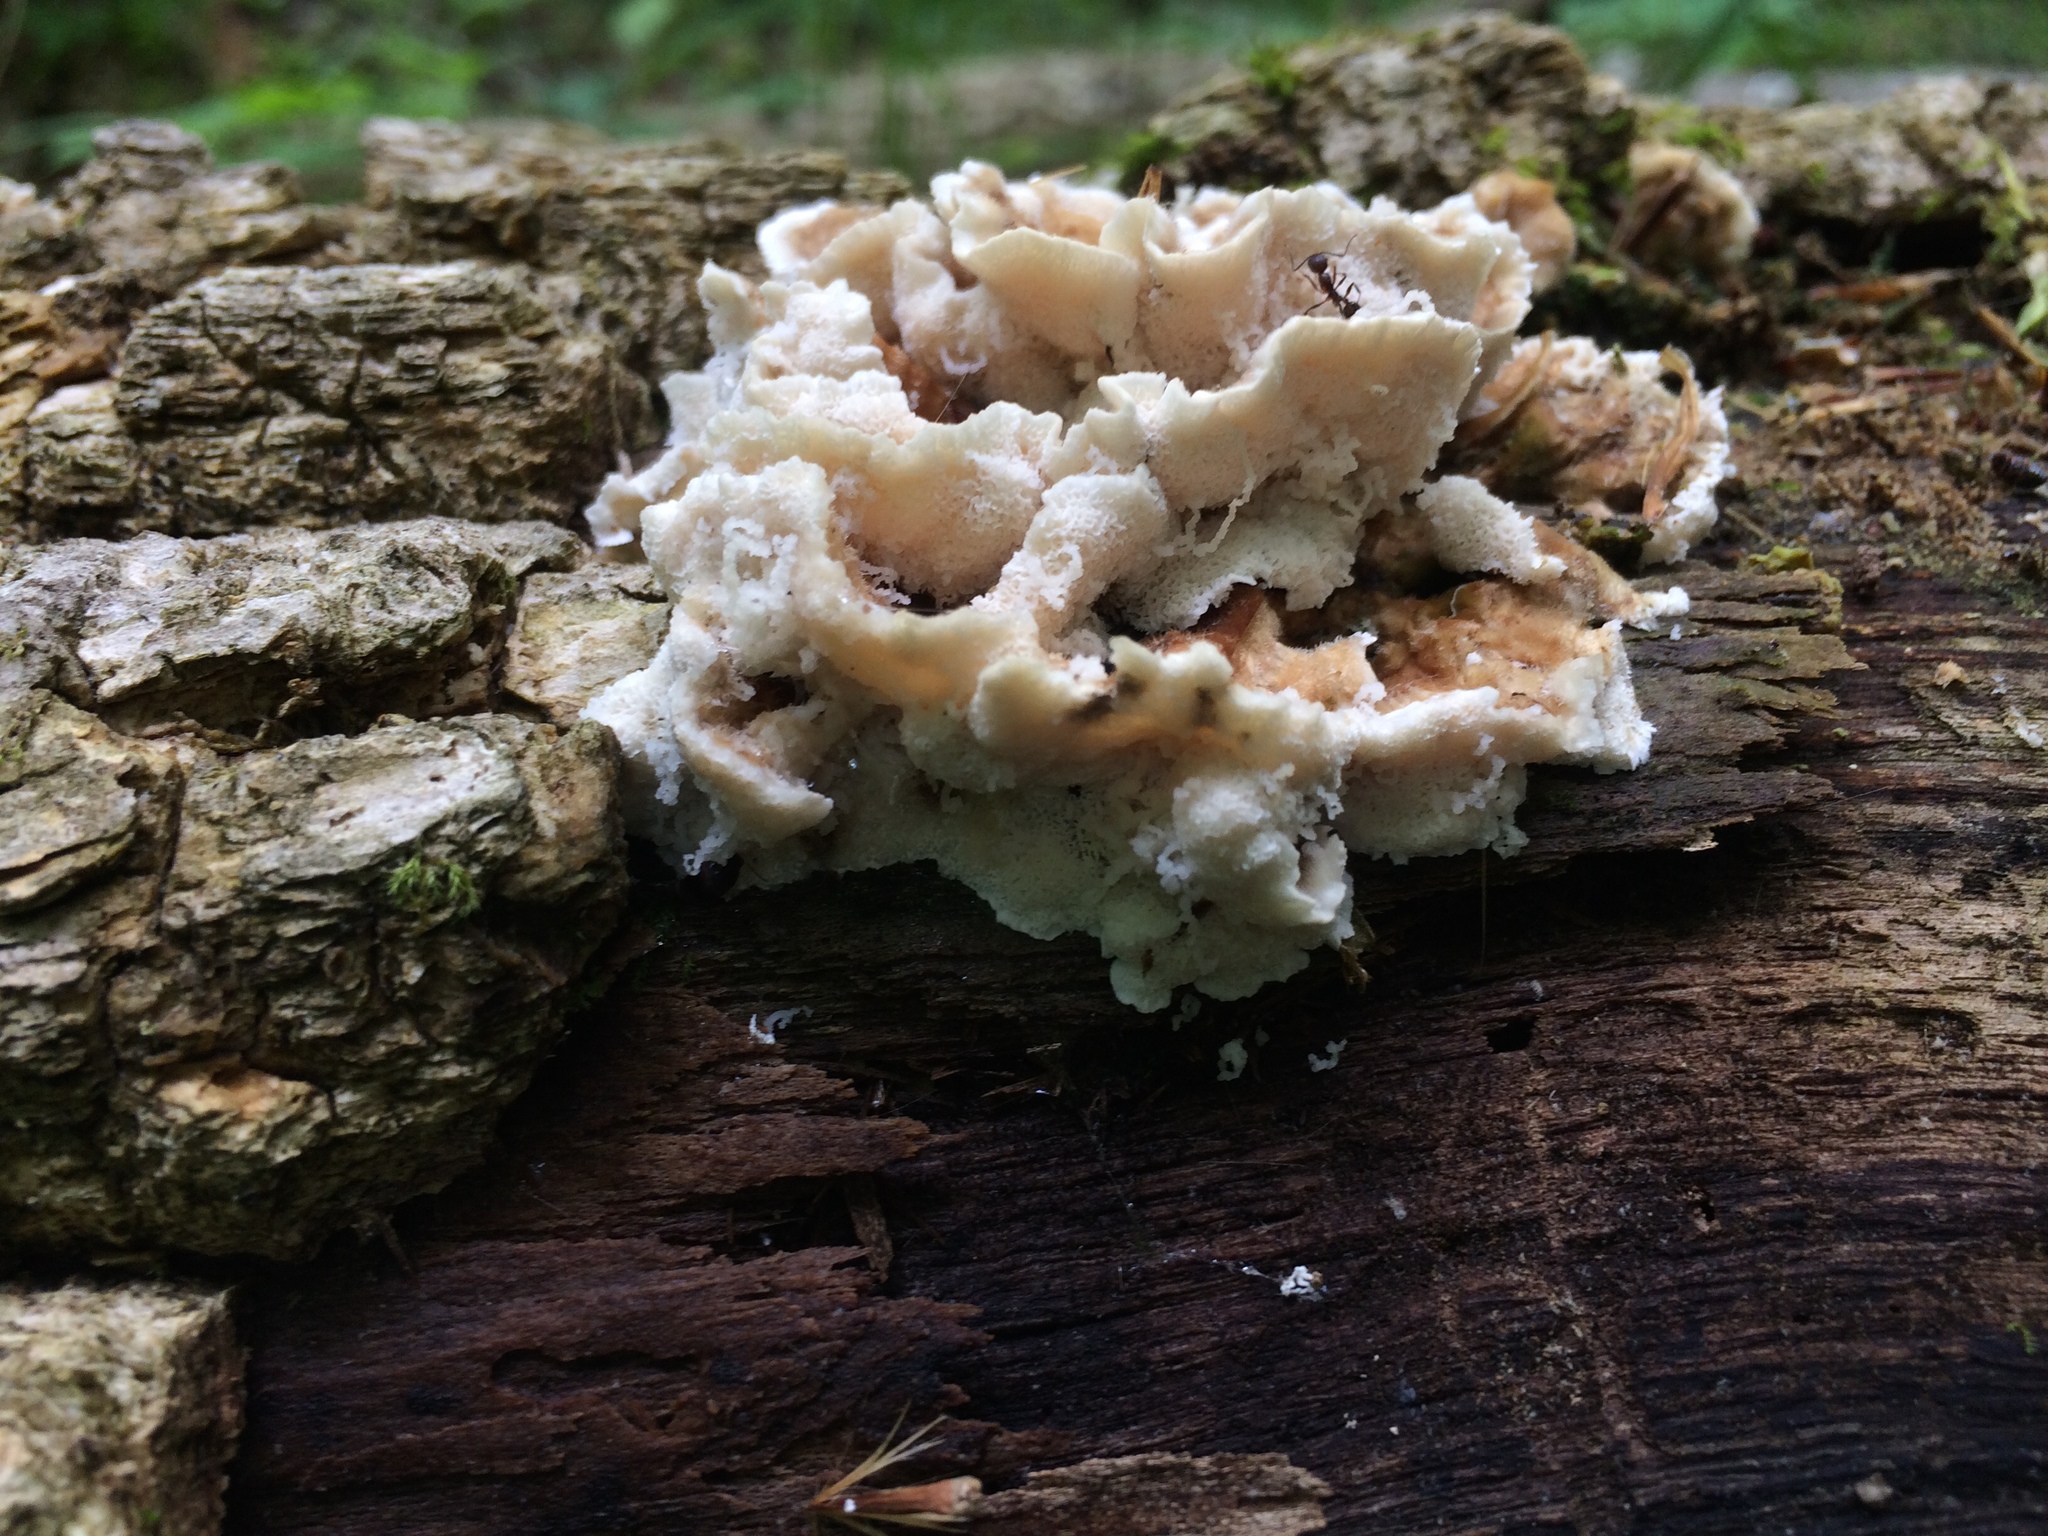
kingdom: Fungi
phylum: Basidiomycota
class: Agaricomycetes
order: Polyporales
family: Polyporaceae
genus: Trametes
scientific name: Trametes versicolor
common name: Turkeytail
